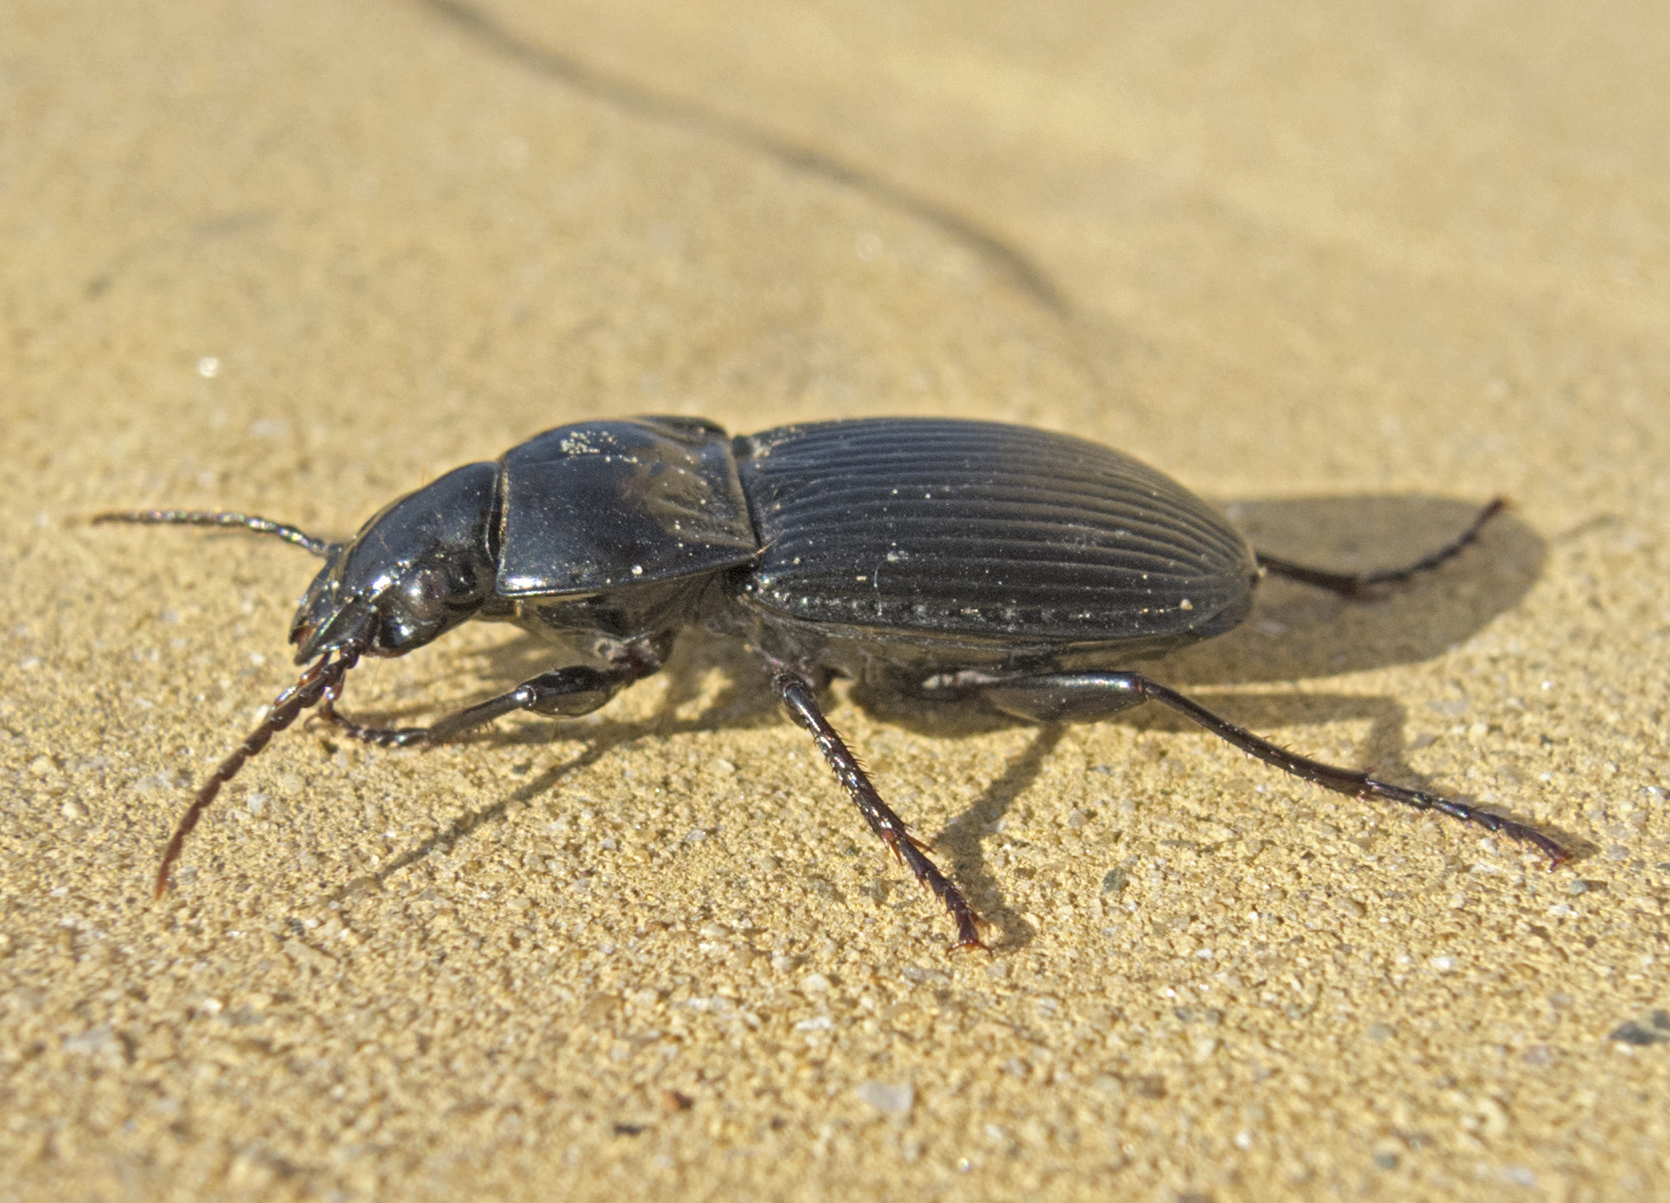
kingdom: Animalia
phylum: Arthropoda
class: Insecta
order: Coleoptera
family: Carabidae
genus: Pterostichus
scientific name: Pterostichus melas
